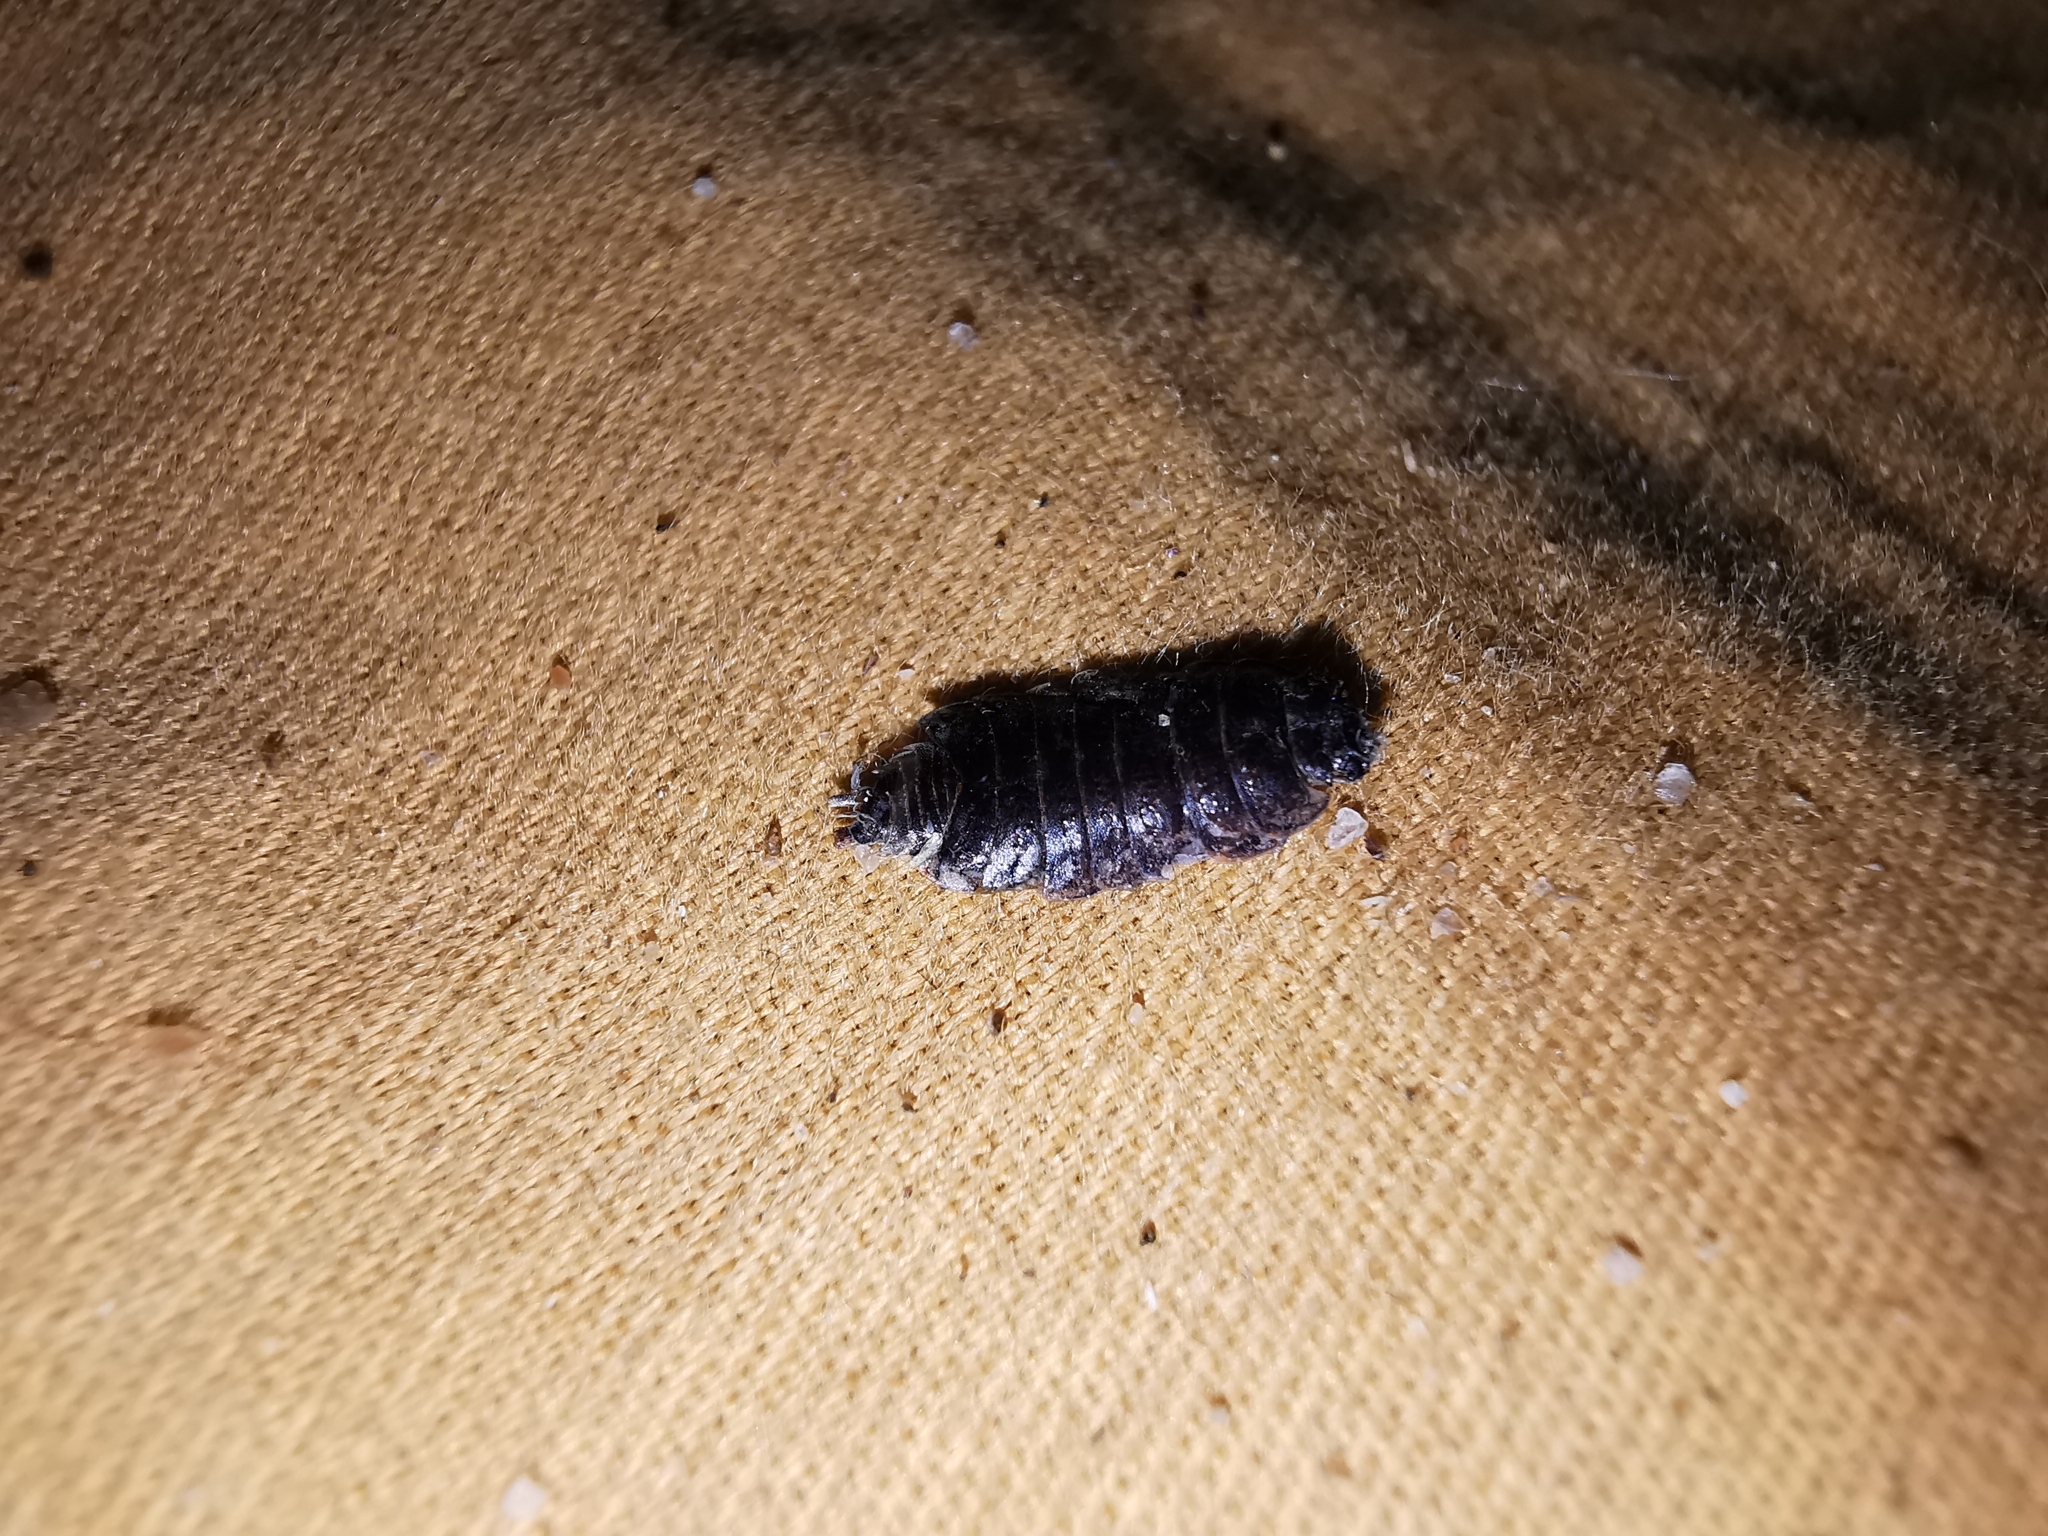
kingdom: Animalia
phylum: Arthropoda
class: Malacostraca
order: Isopoda
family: Porcellionidae
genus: Porcellionides
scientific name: Porcellionides pruinosus
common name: Plum woodlouse
